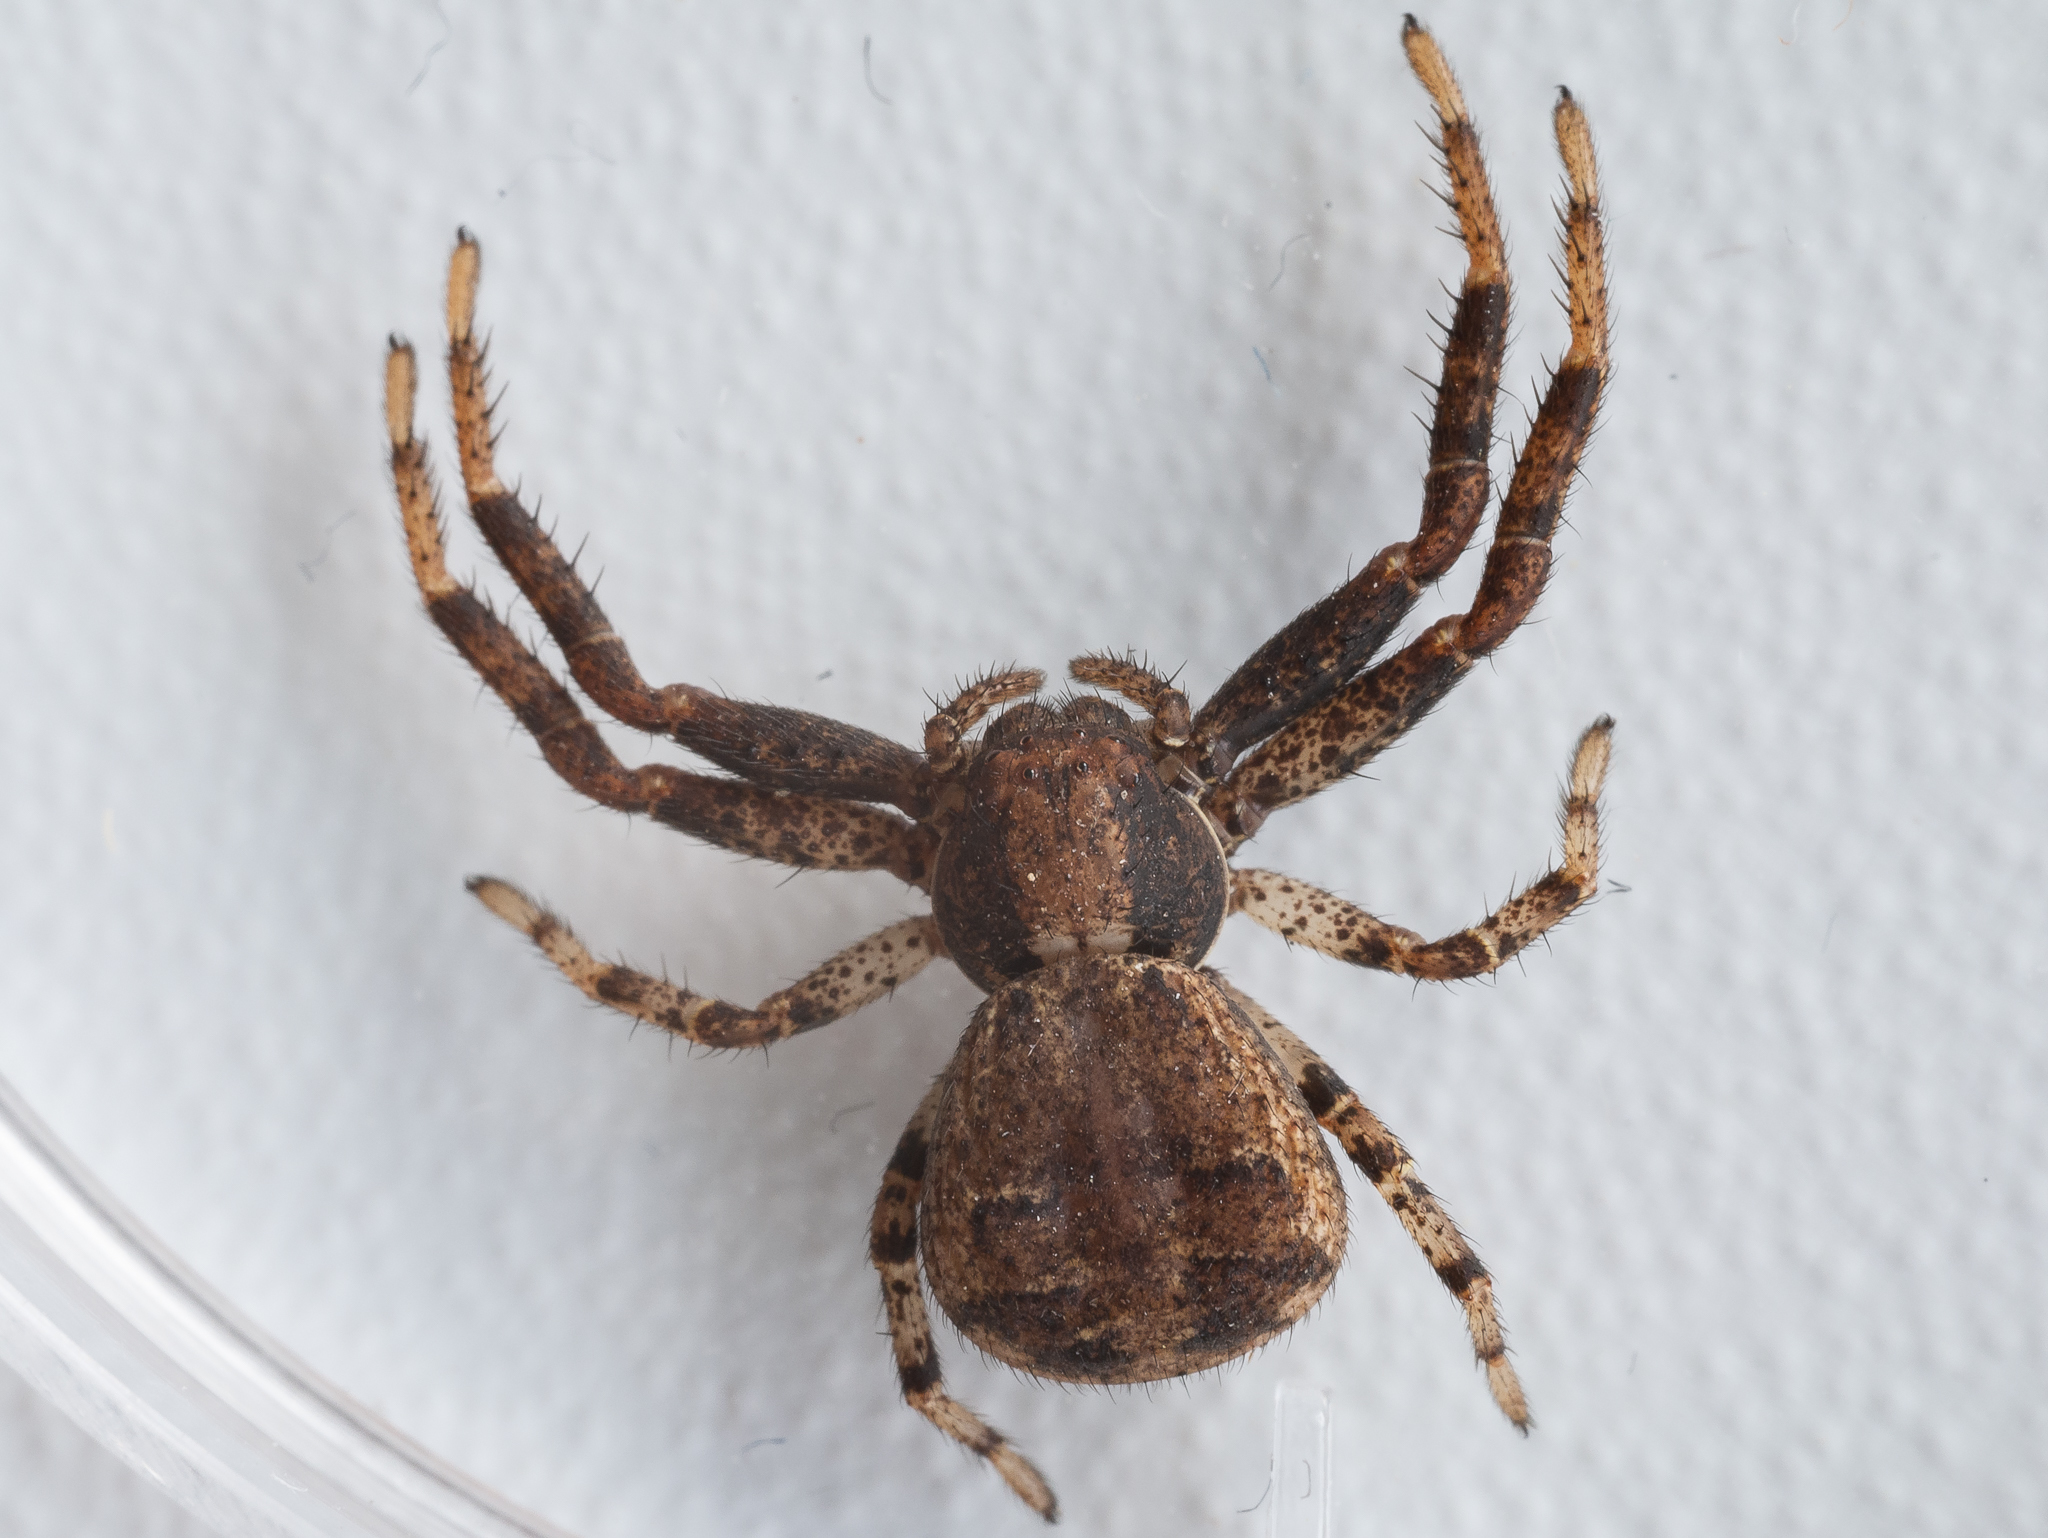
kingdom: Animalia
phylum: Arthropoda
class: Arachnida
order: Araneae
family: Thomisidae
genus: Xysticus
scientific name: Xysticus luctator
